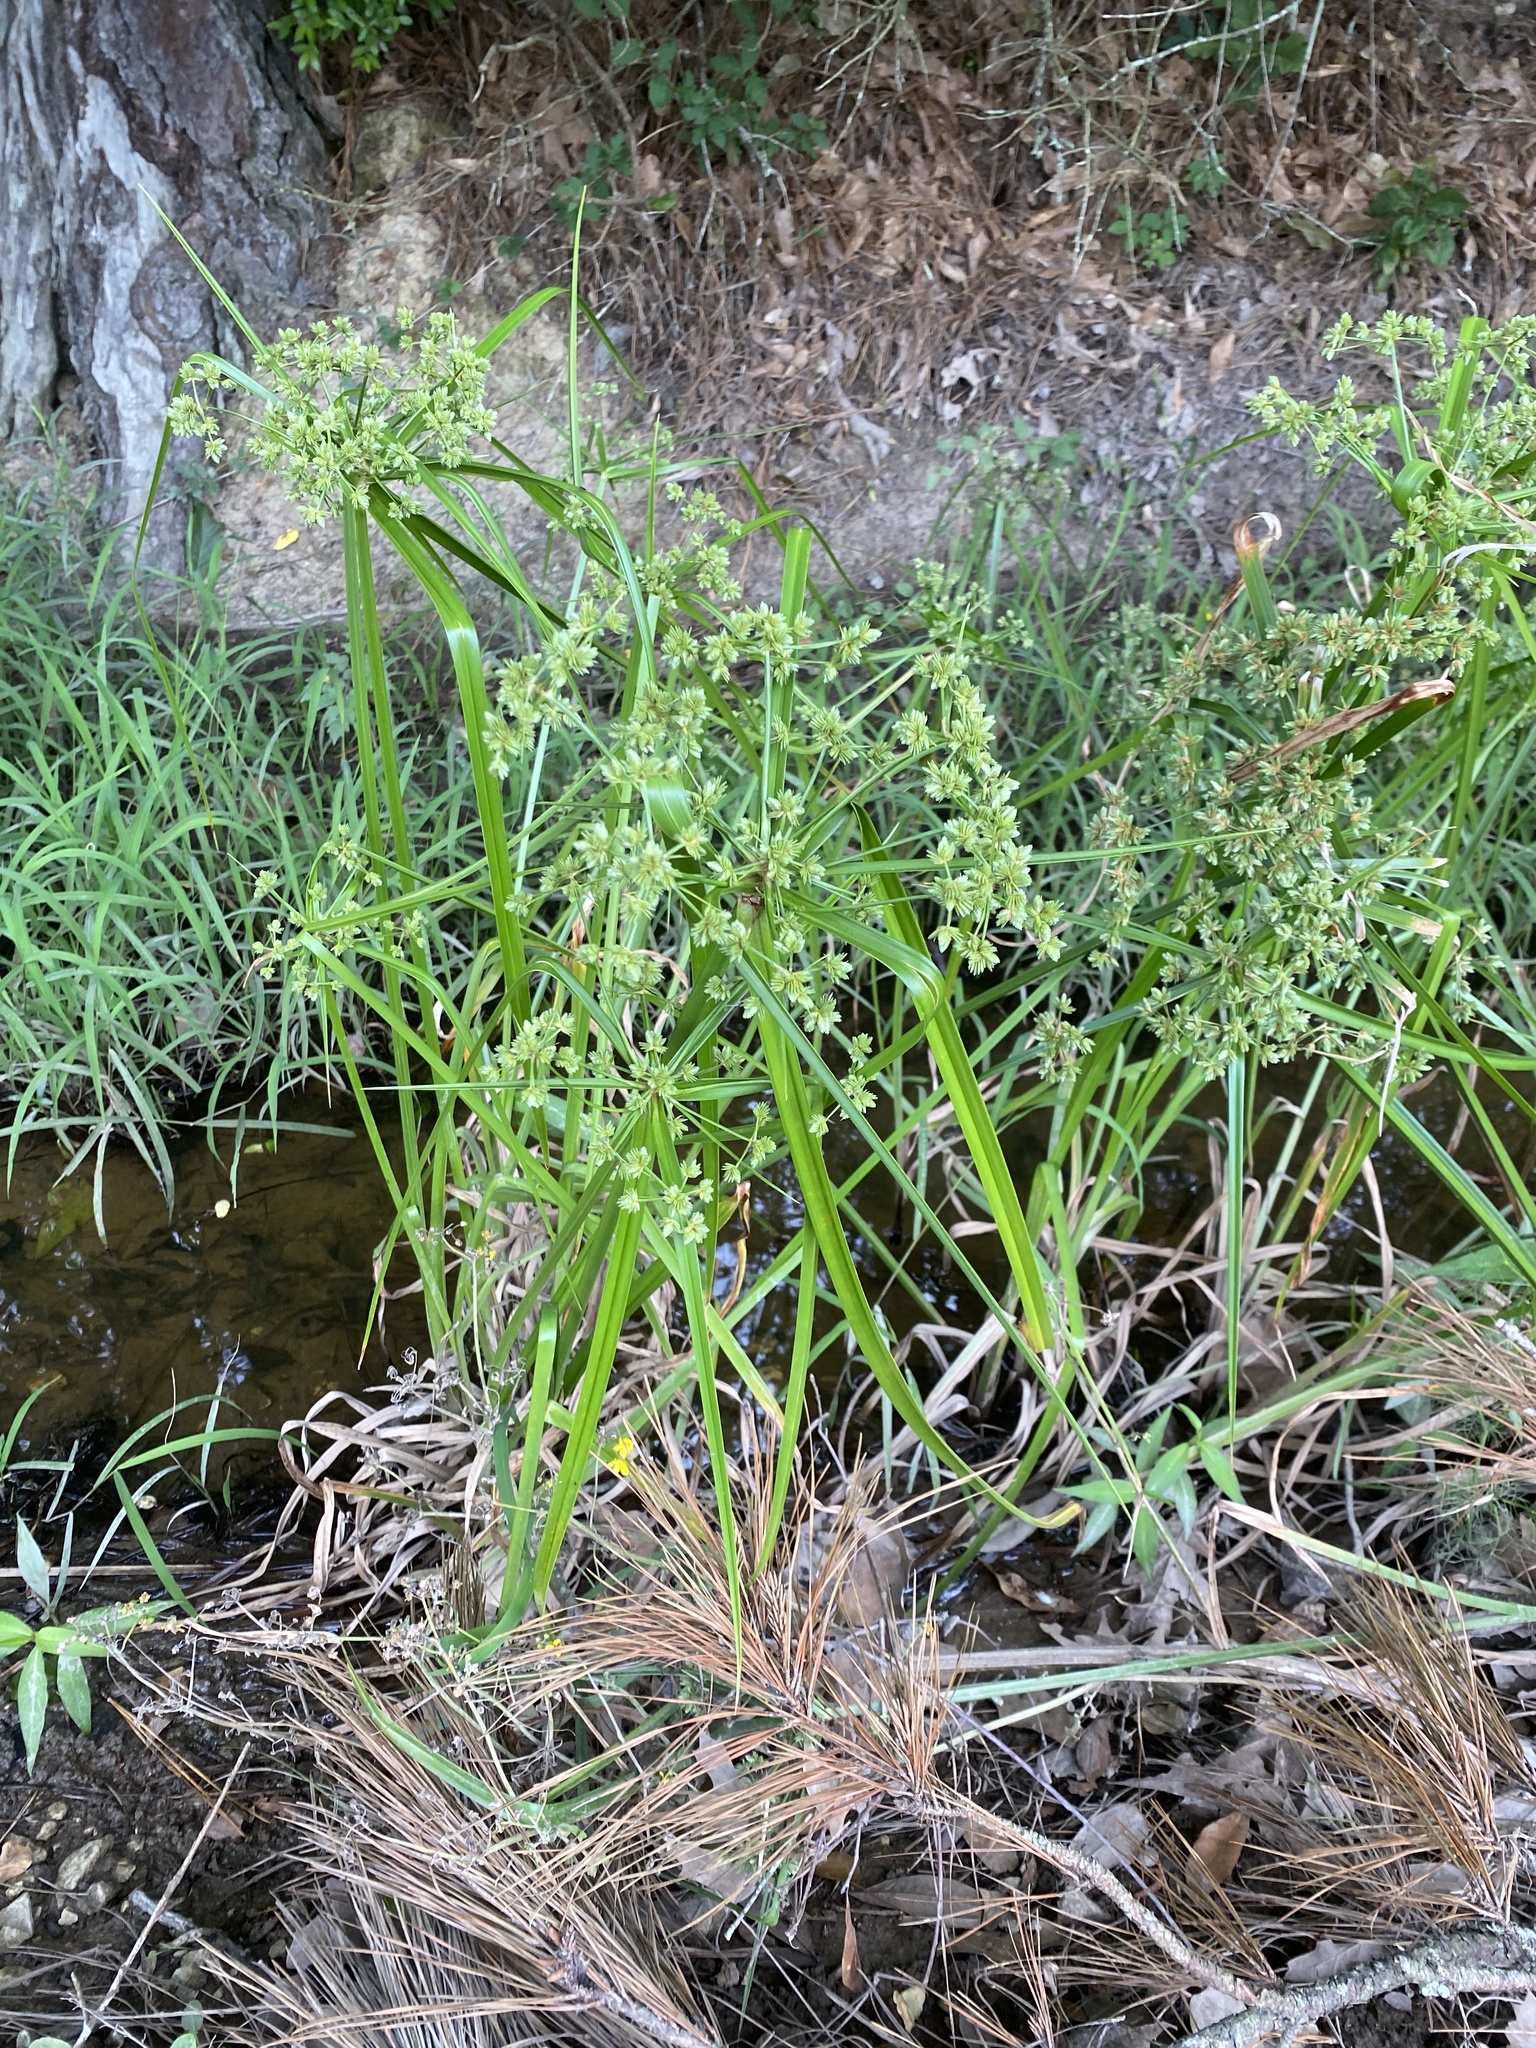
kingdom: Plantae
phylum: Tracheophyta
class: Liliopsida
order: Poales
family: Cyperaceae
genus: Cyperus
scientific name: Cyperus virens
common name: Green flatsedge
